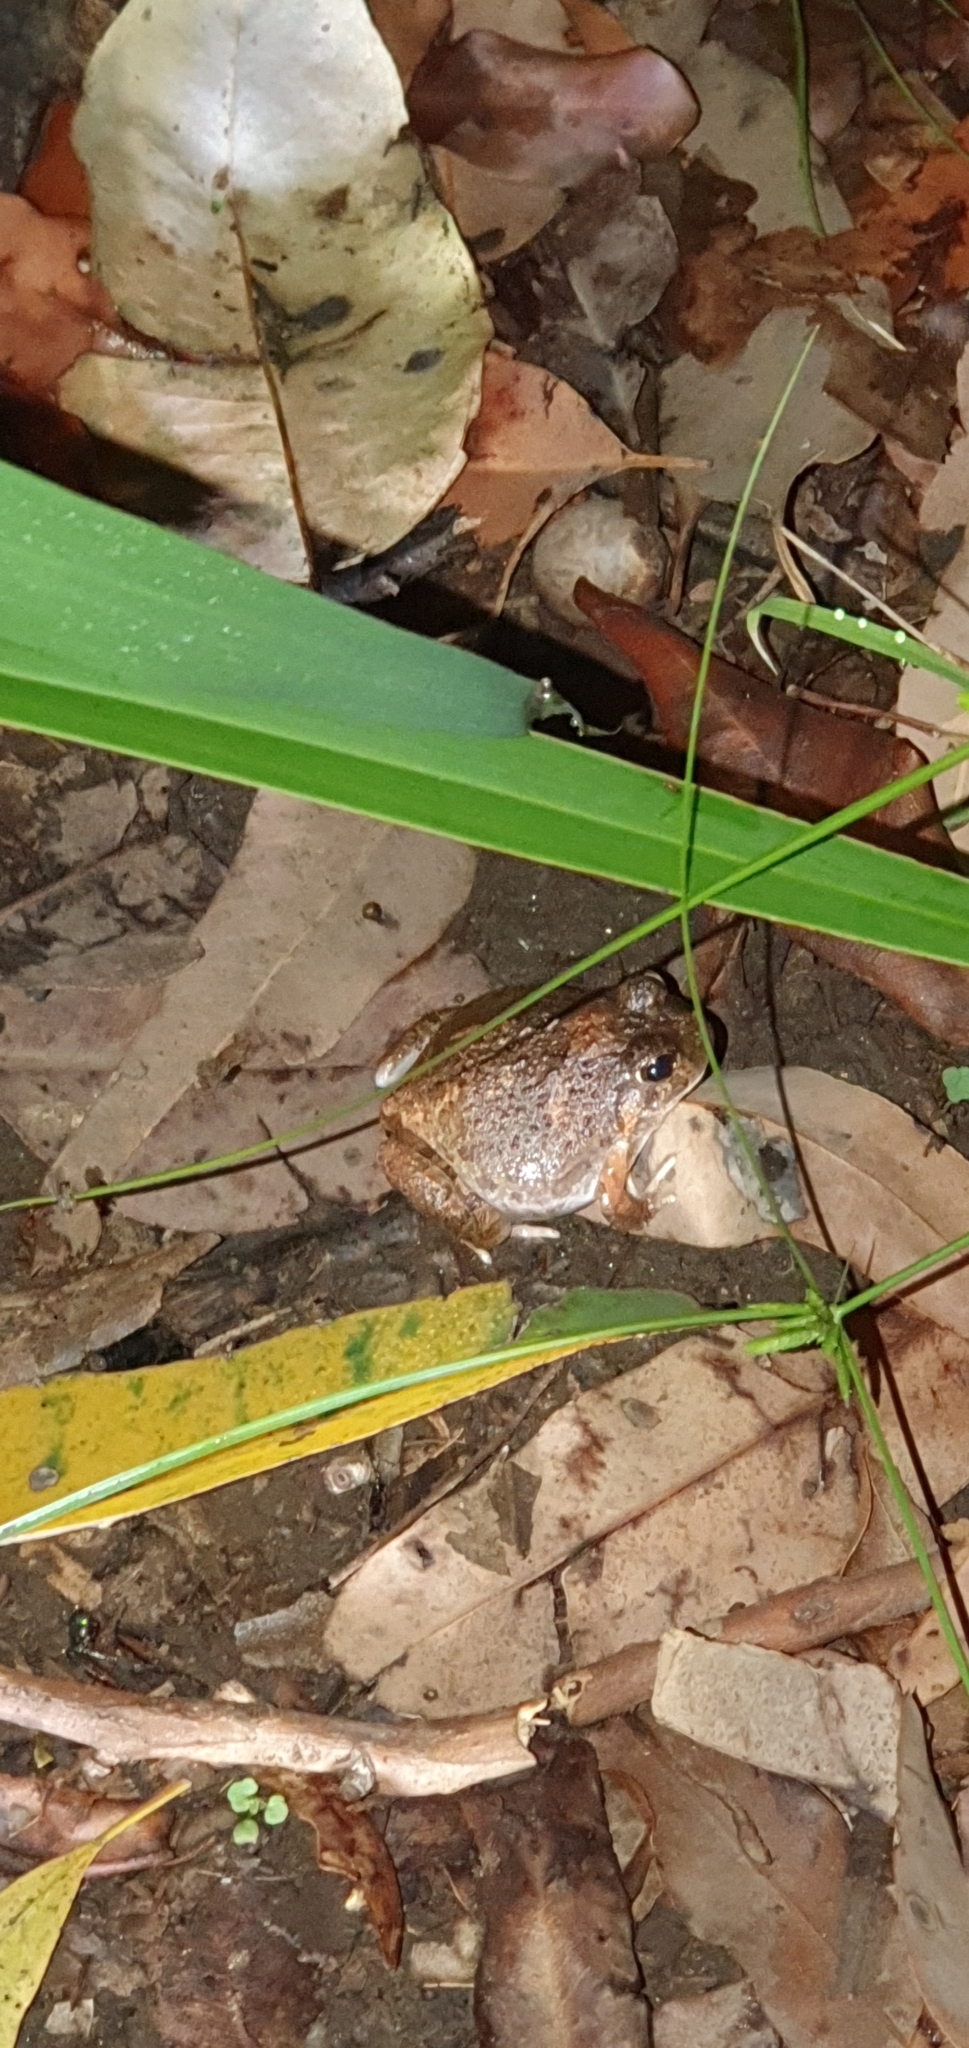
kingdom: Animalia
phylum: Chordata
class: Amphibia
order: Anura
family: Limnodynastidae
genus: Platyplectrum
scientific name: Platyplectrum ornatum
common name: Ornate burrowing frog
